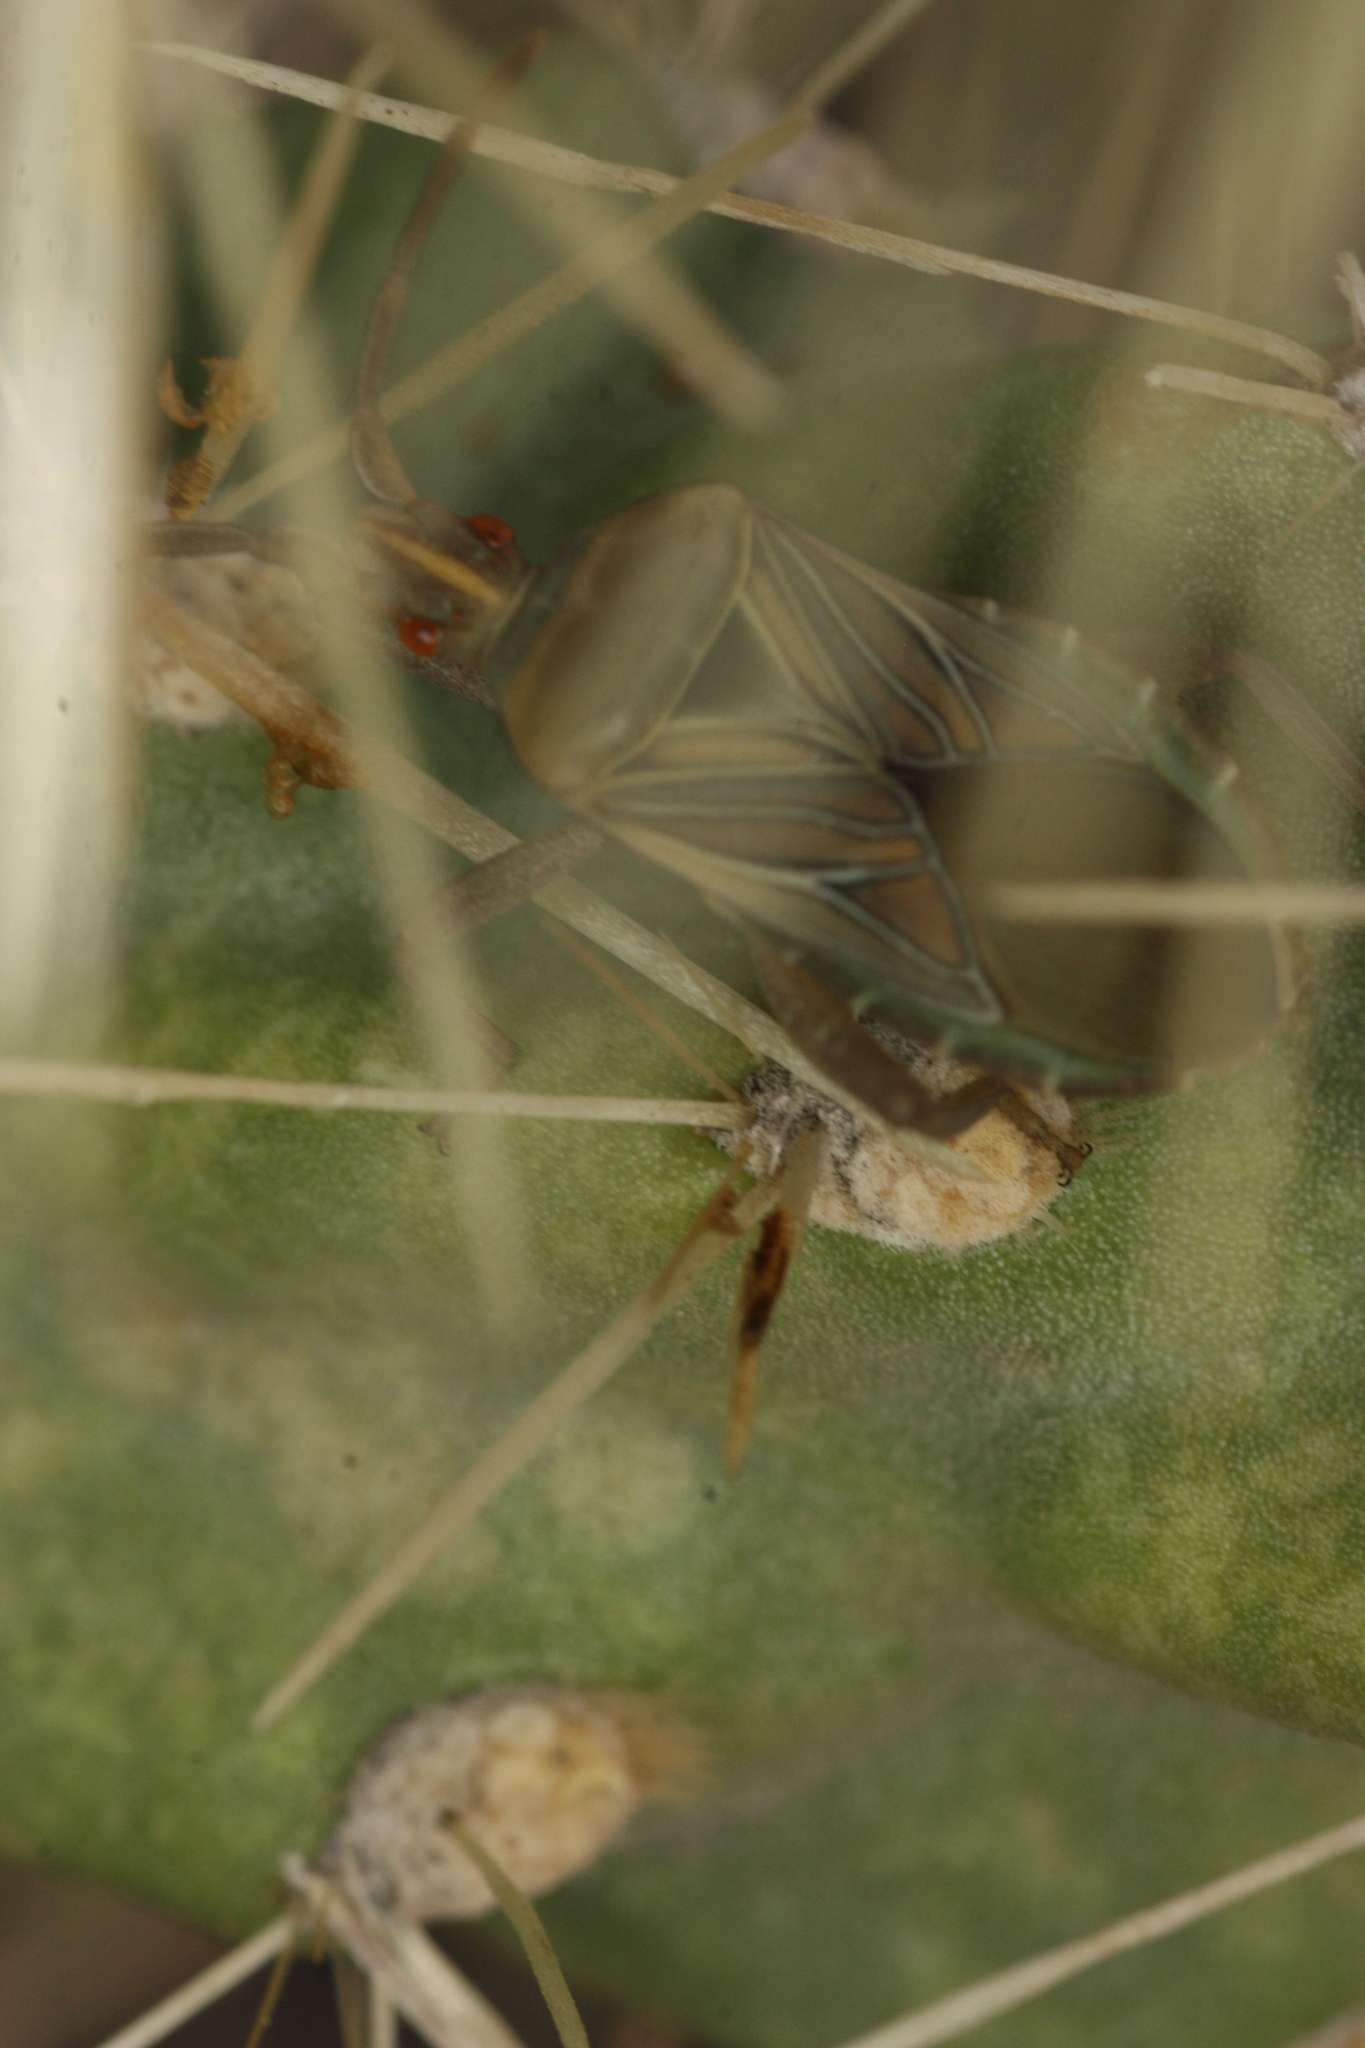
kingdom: Animalia
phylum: Arthropoda
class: Insecta
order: Hemiptera
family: Coreidae
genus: Chelinidea
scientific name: Chelinidea hunteri
